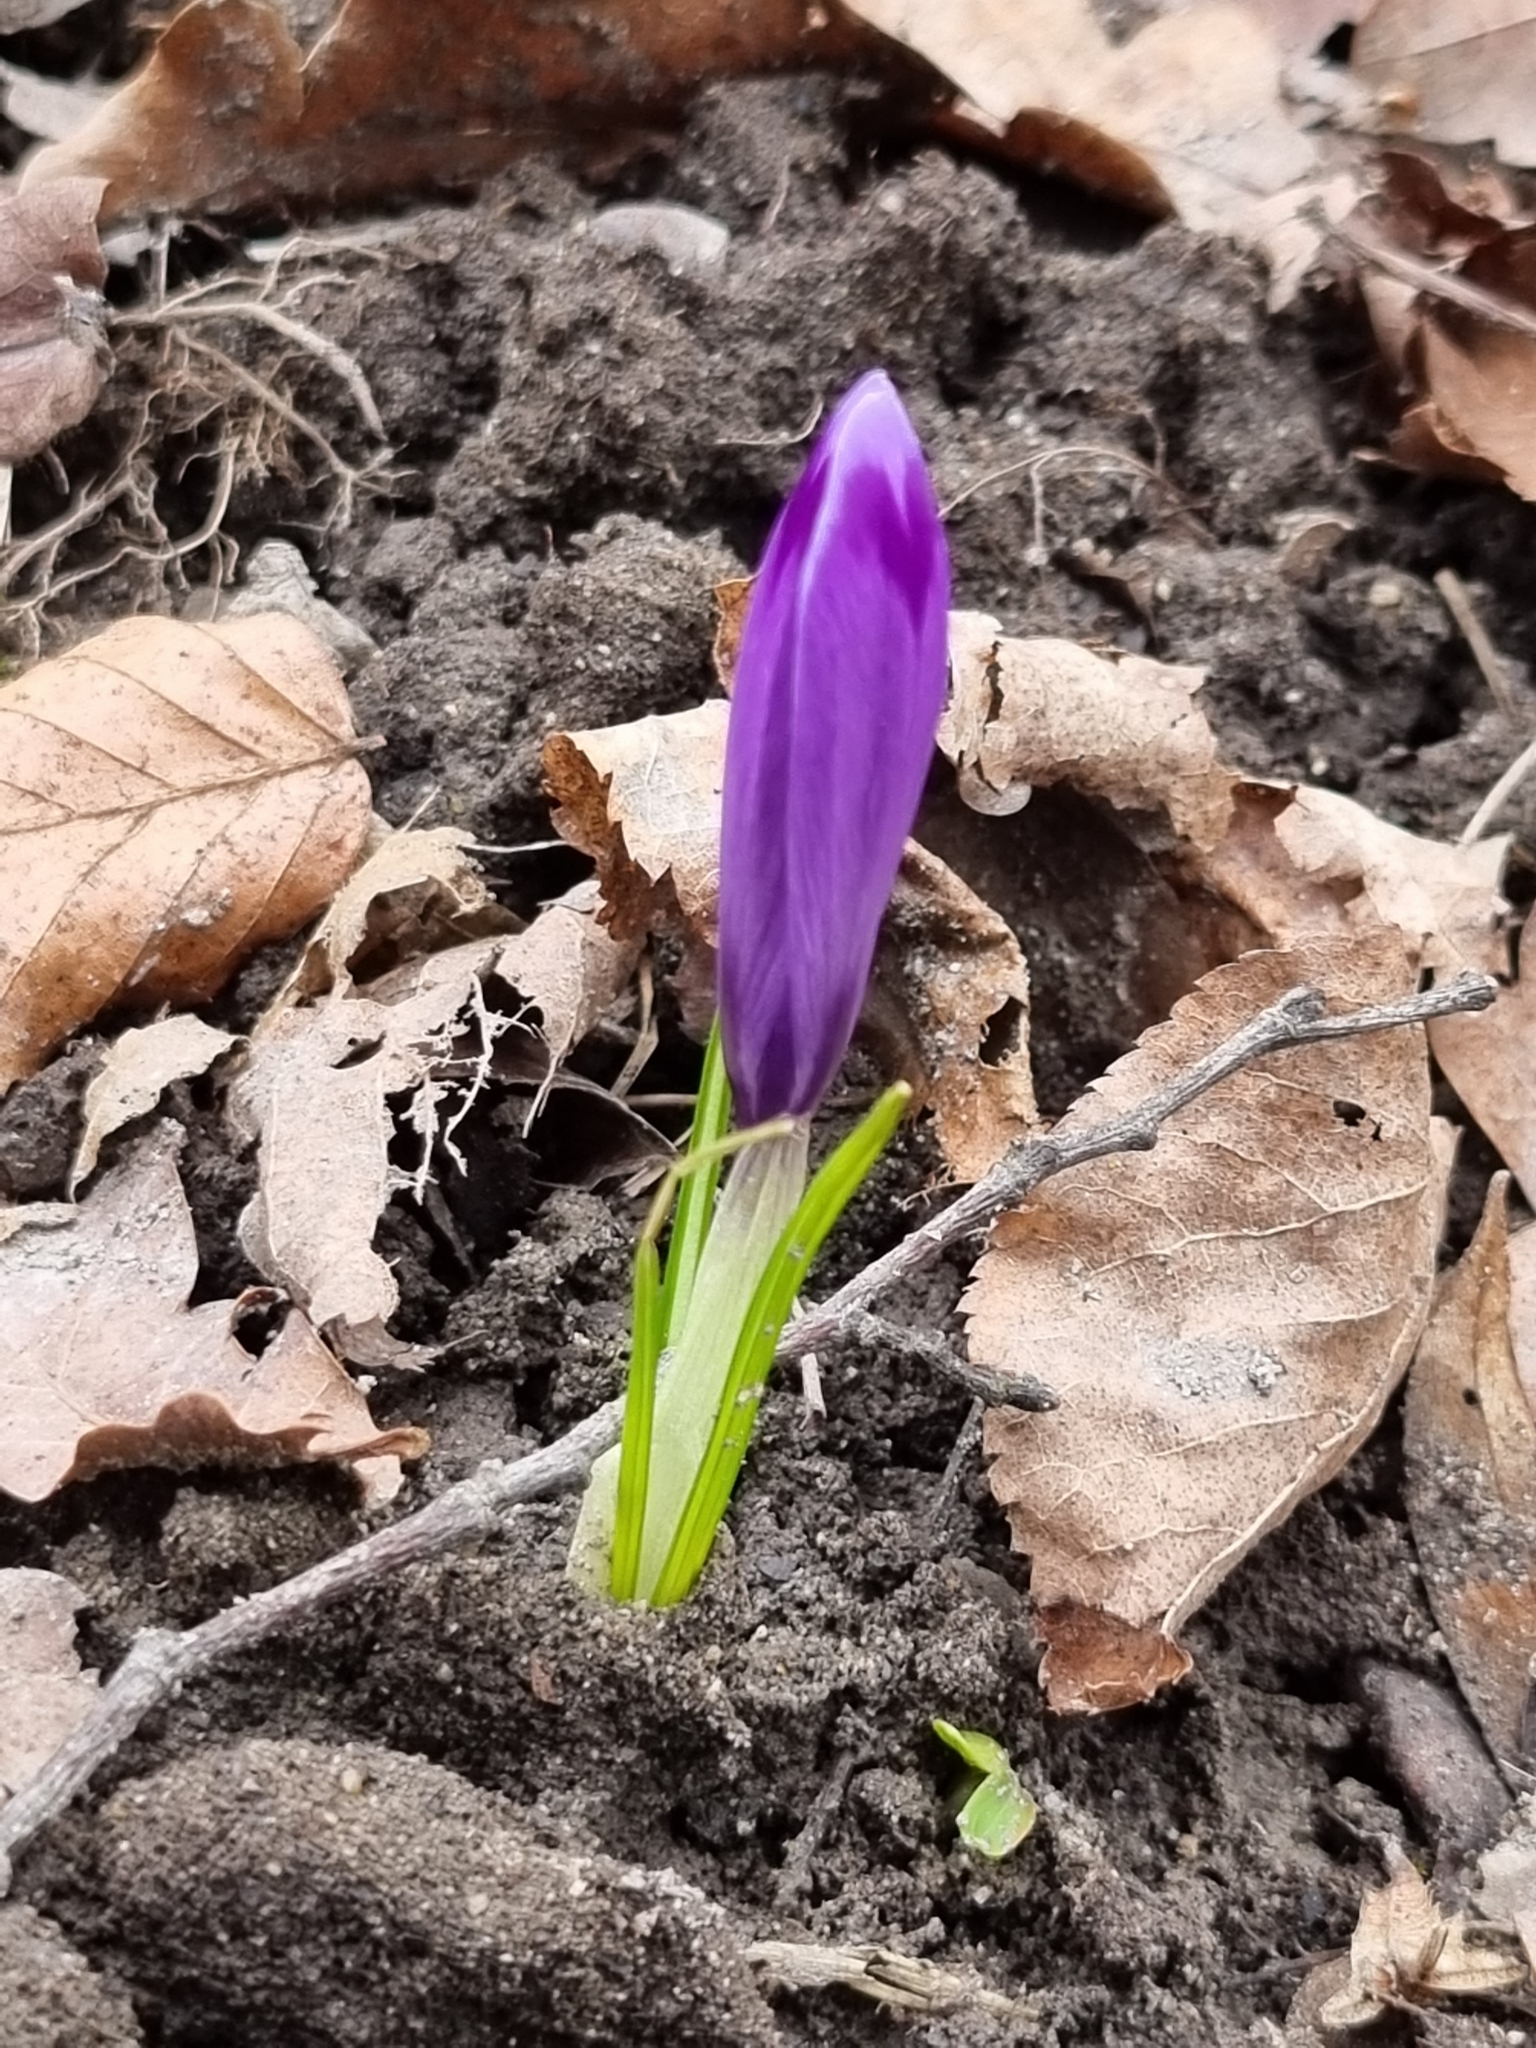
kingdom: Plantae
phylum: Tracheophyta
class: Liliopsida
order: Asparagales
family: Iridaceae
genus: Crocus
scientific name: Crocus heuffelianus
